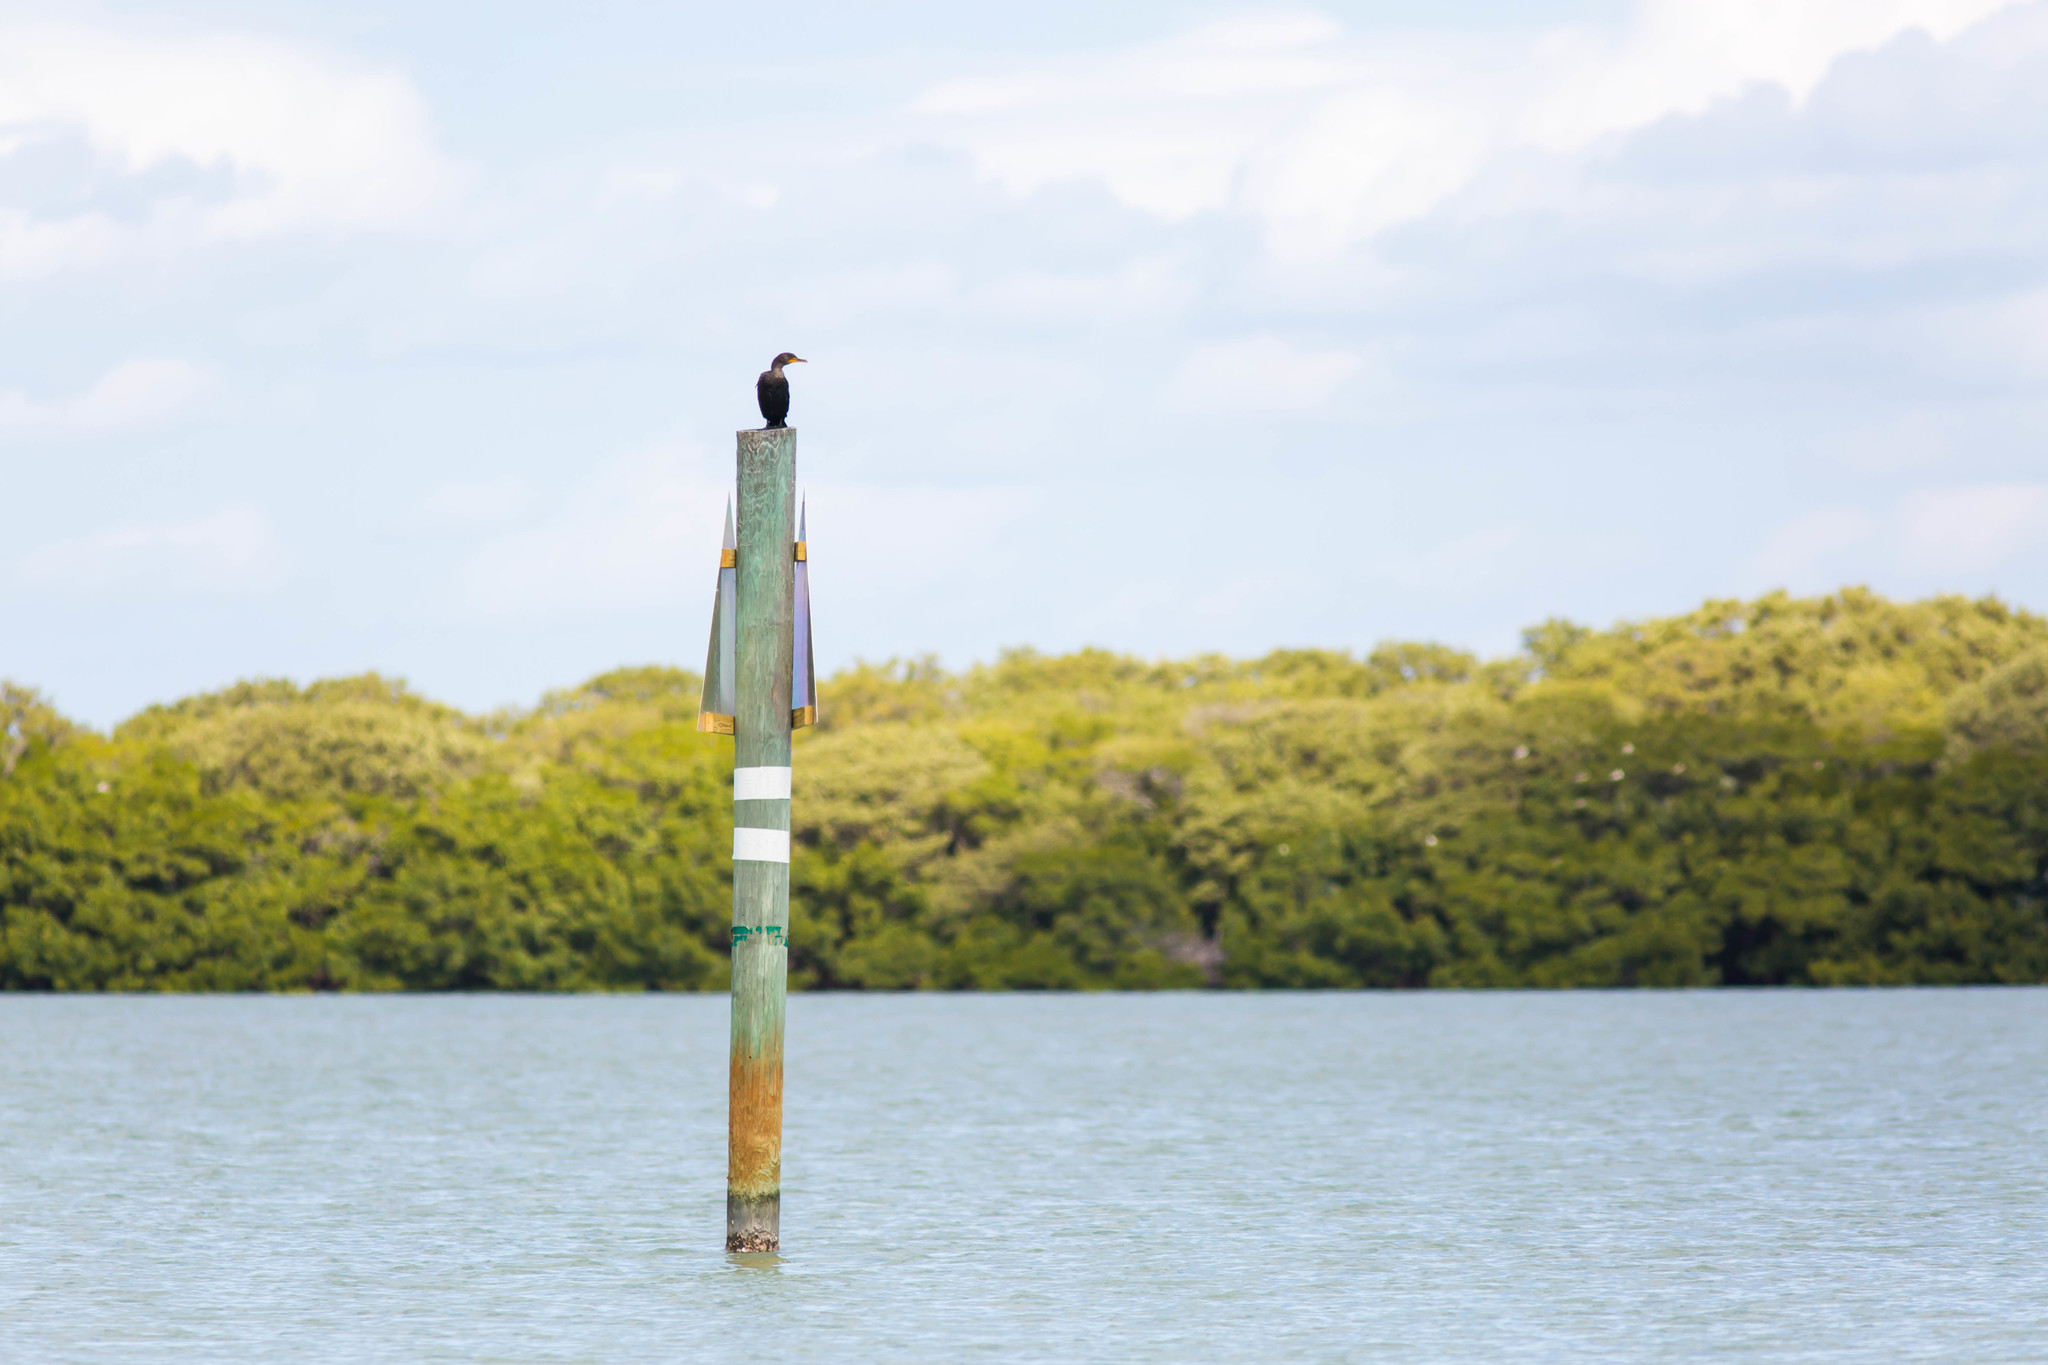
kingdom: Animalia
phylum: Chordata
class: Aves
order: Suliformes
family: Phalacrocoracidae
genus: Phalacrocorax
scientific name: Phalacrocorax auritus
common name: Double-crested cormorant
